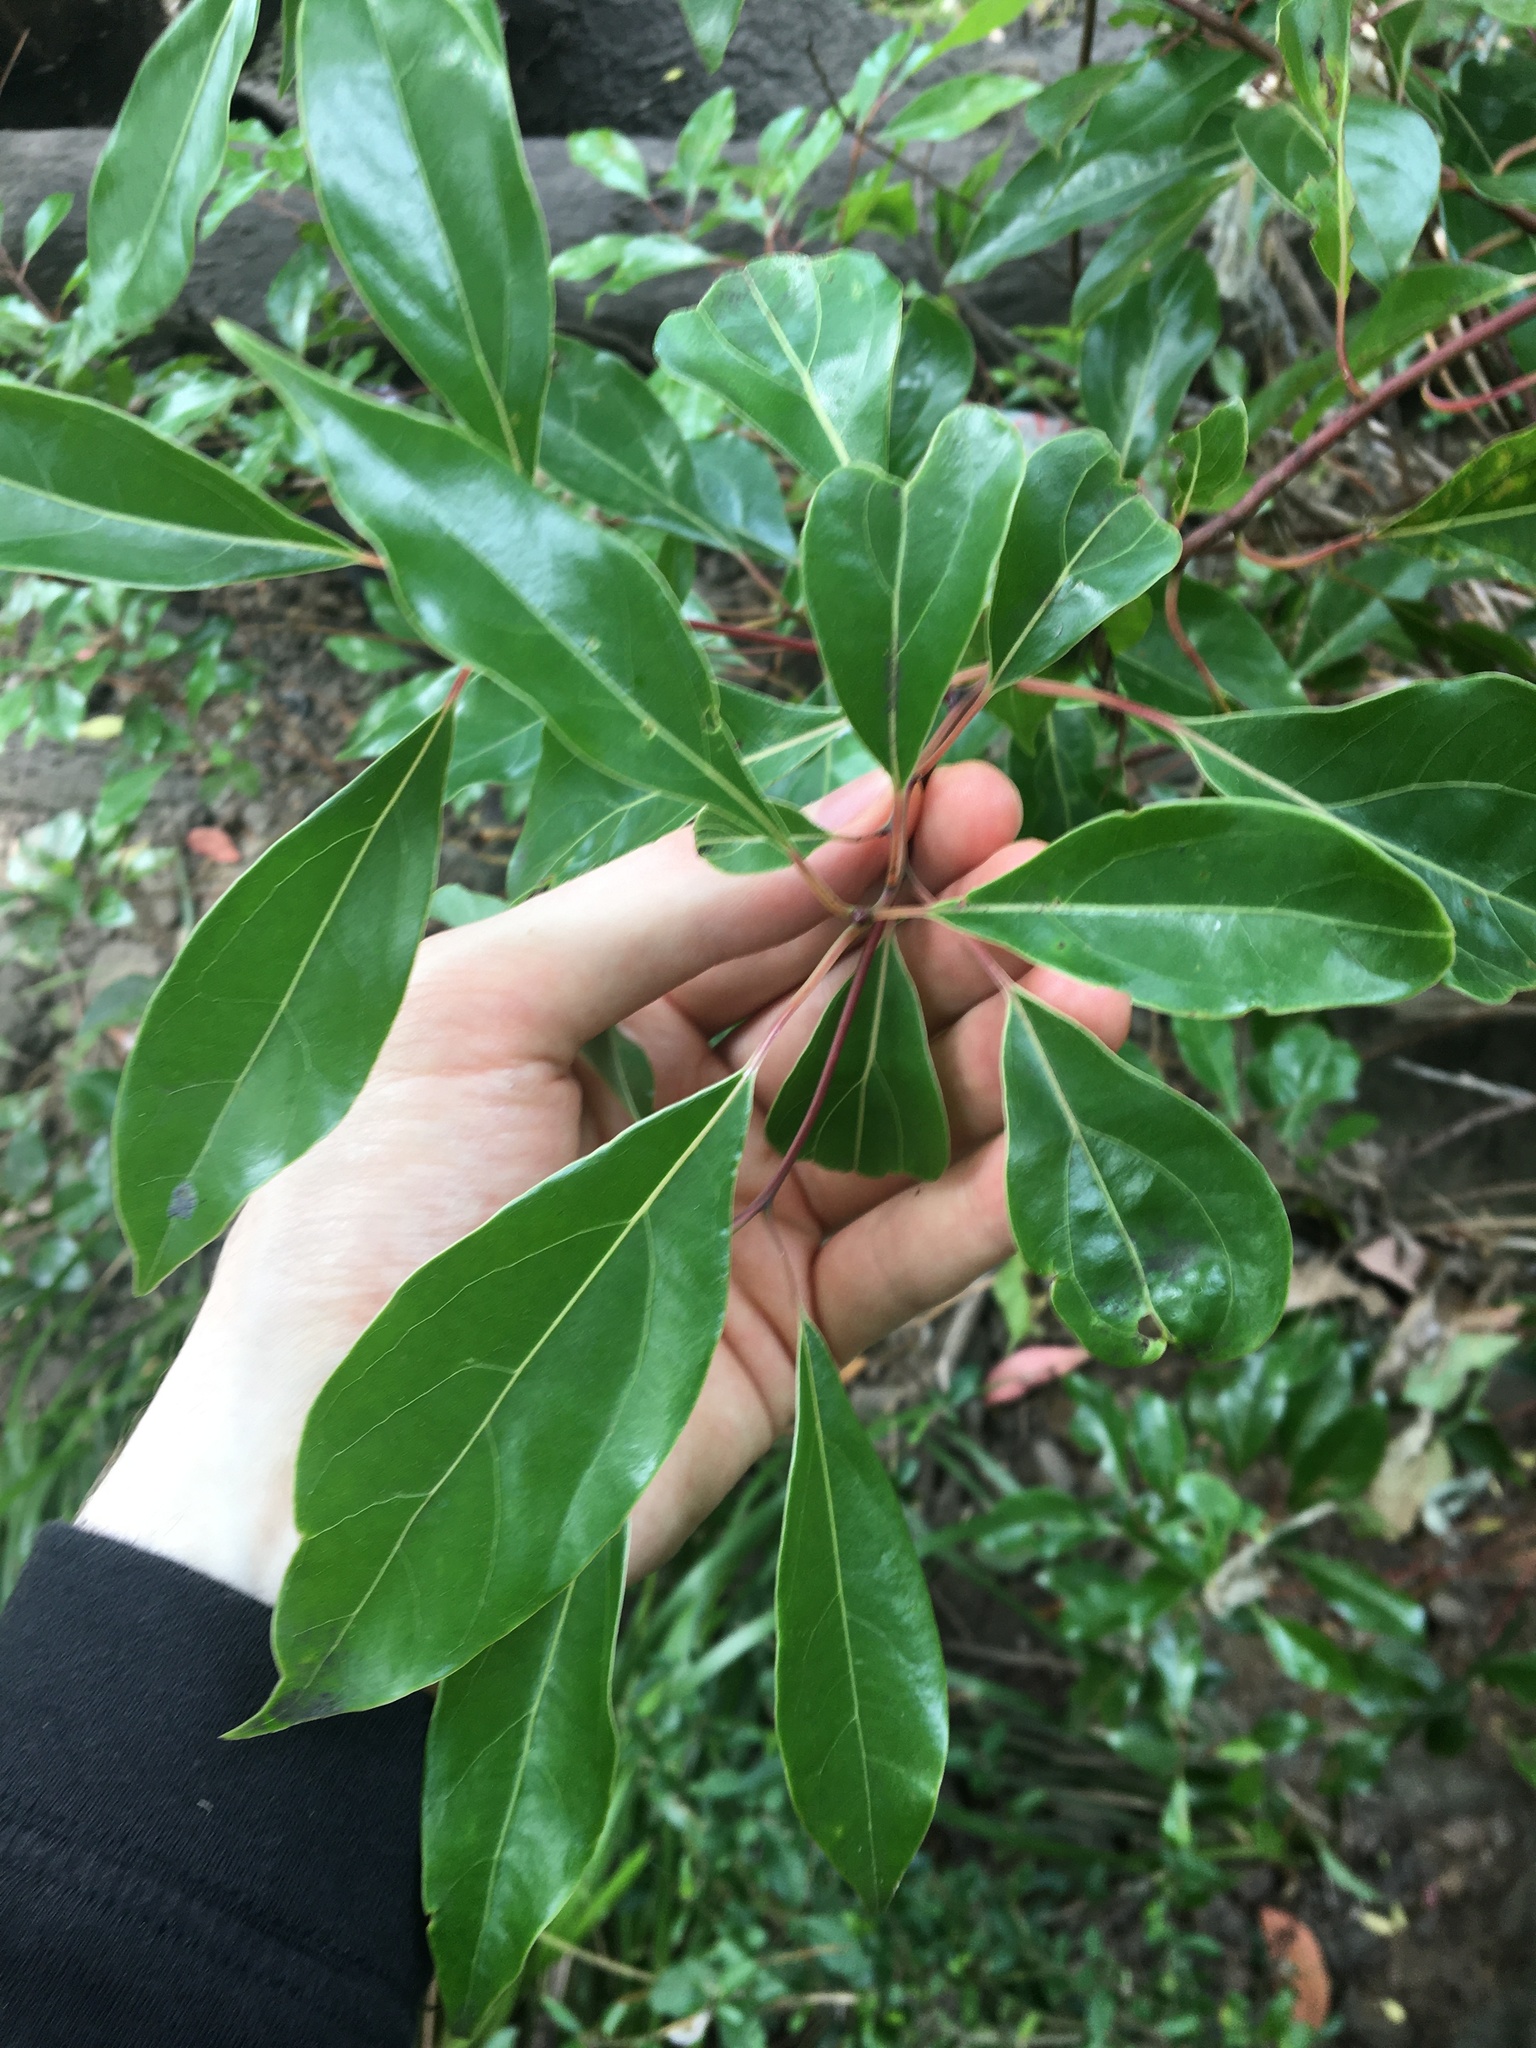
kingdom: Plantae
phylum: Tracheophyta
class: Magnoliopsida
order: Laurales
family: Lauraceae
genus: Cinnamomum
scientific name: Cinnamomum camphora
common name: Camphortree
